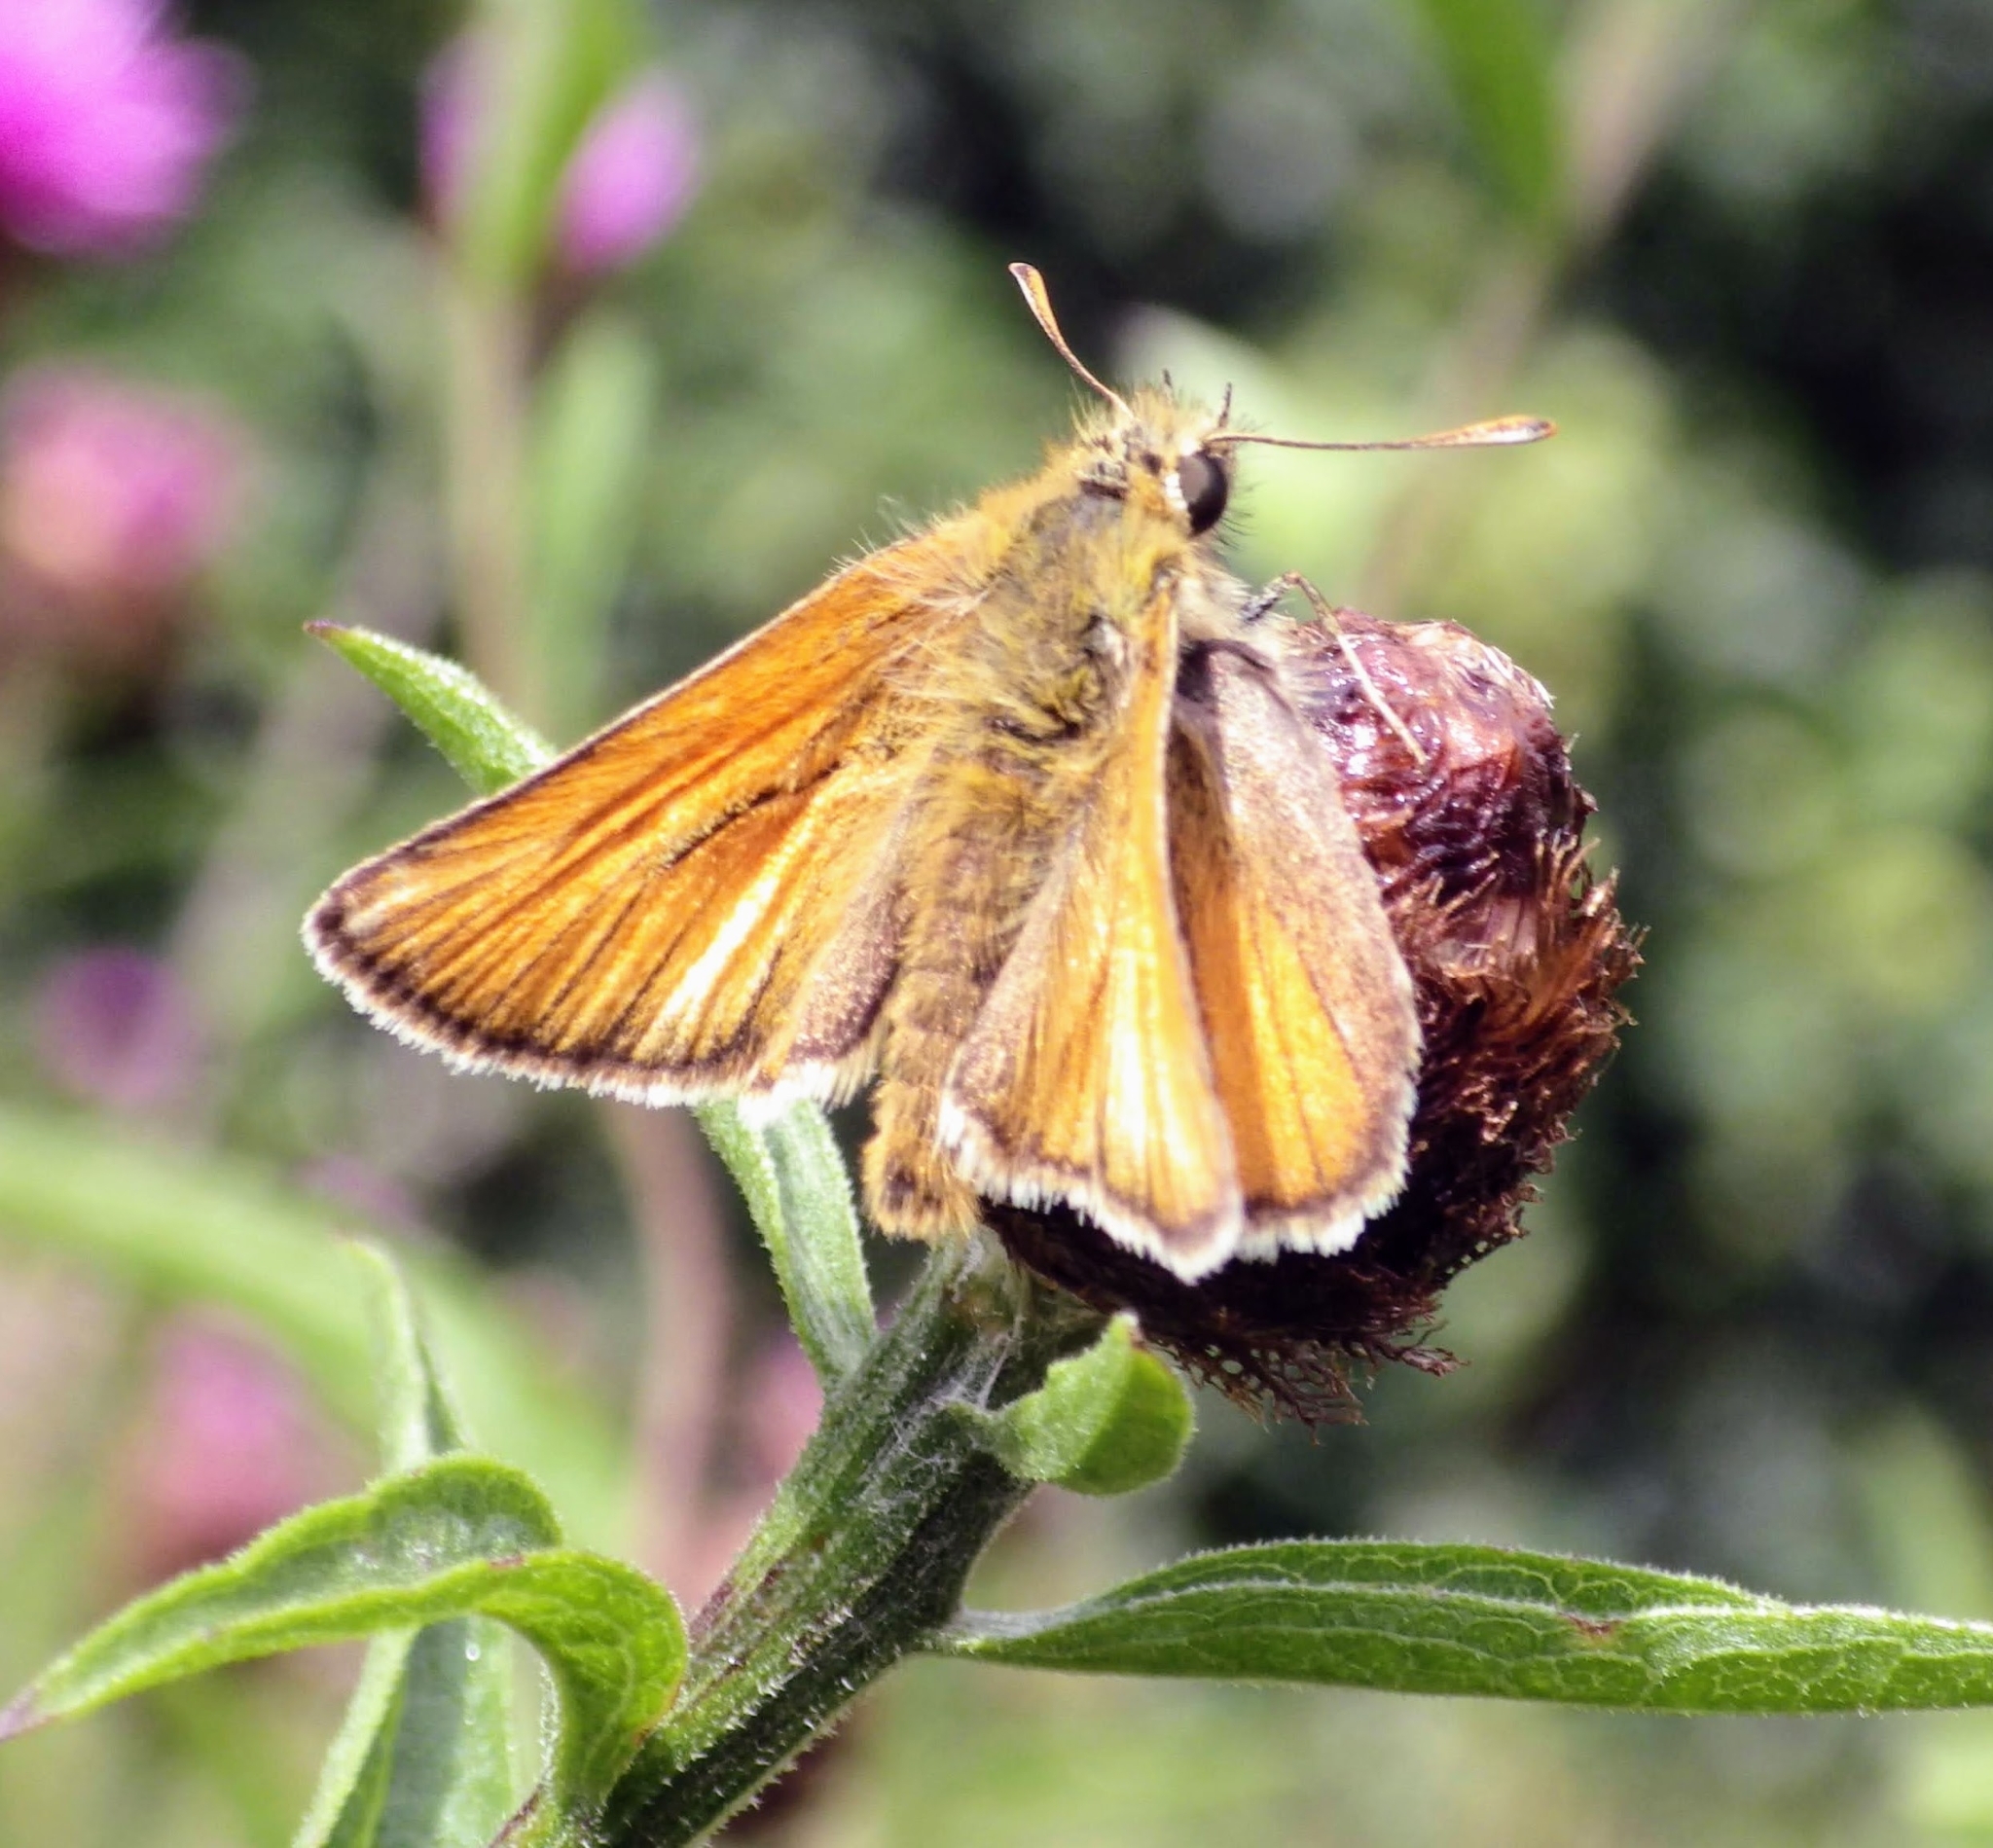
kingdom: Animalia
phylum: Arthropoda
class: Insecta
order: Lepidoptera
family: Hesperiidae
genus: Thymelicus
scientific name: Thymelicus sylvestris
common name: Small skipper
